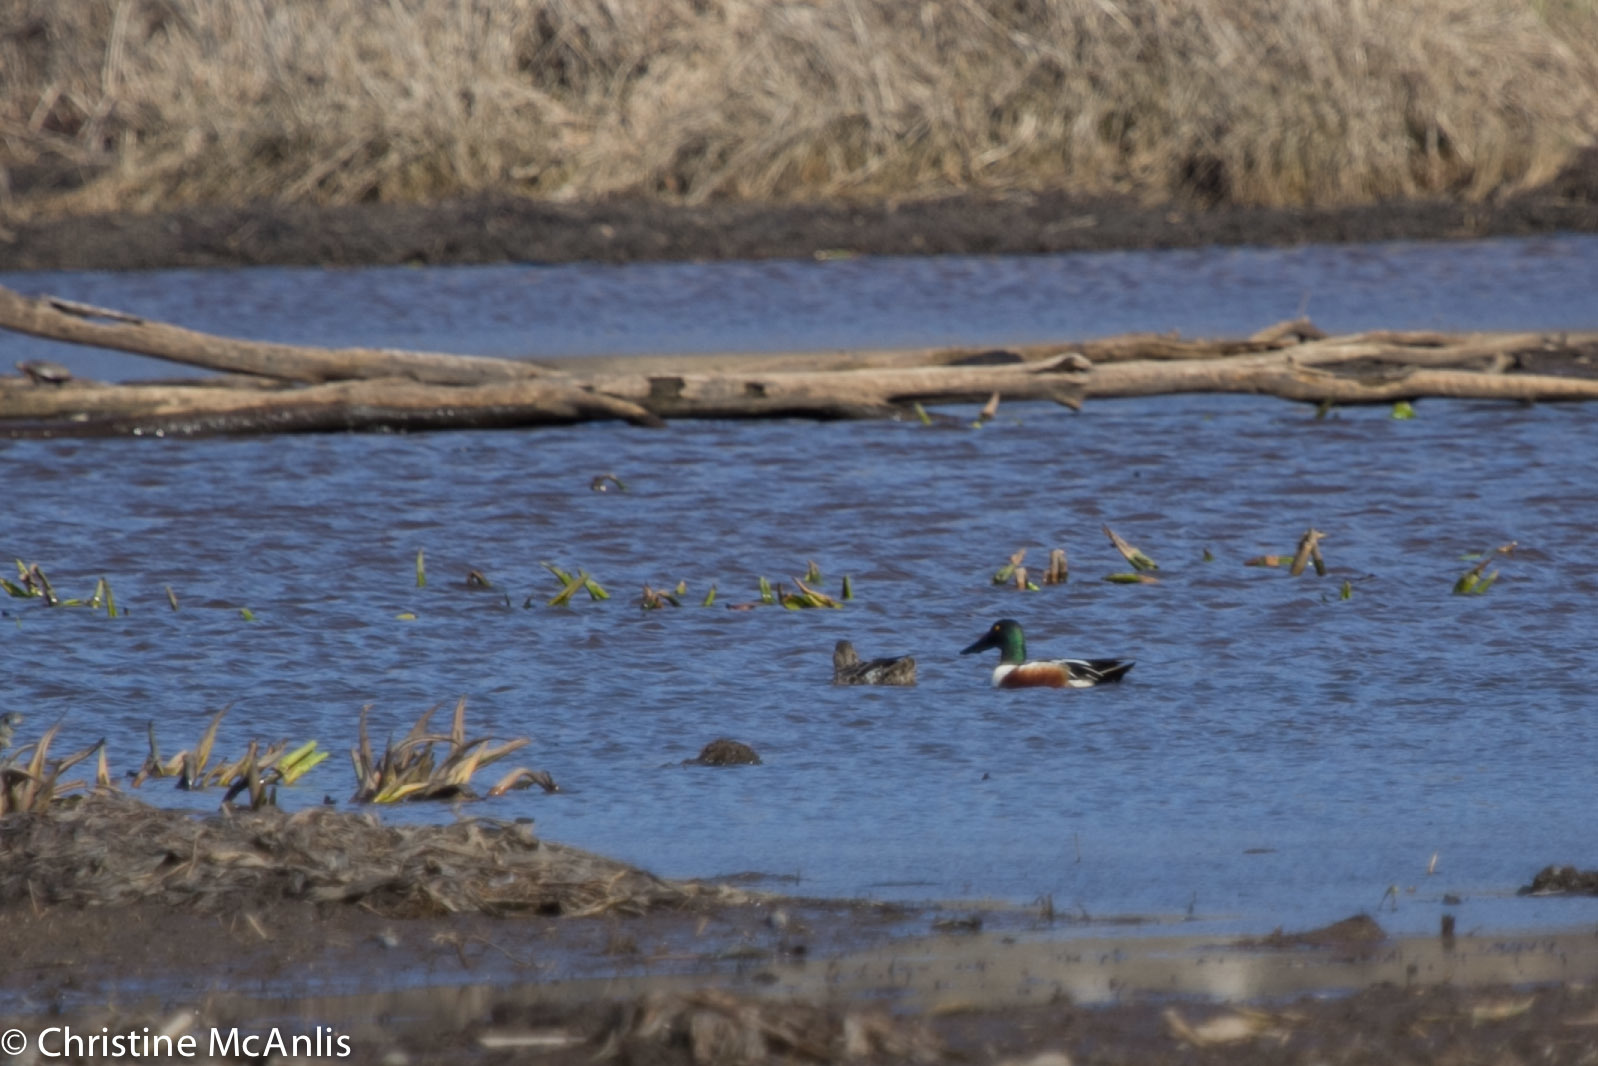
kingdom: Animalia
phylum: Chordata
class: Aves
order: Anseriformes
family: Anatidae
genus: Spatula
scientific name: Spatula clypeata
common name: Northern shoveler
